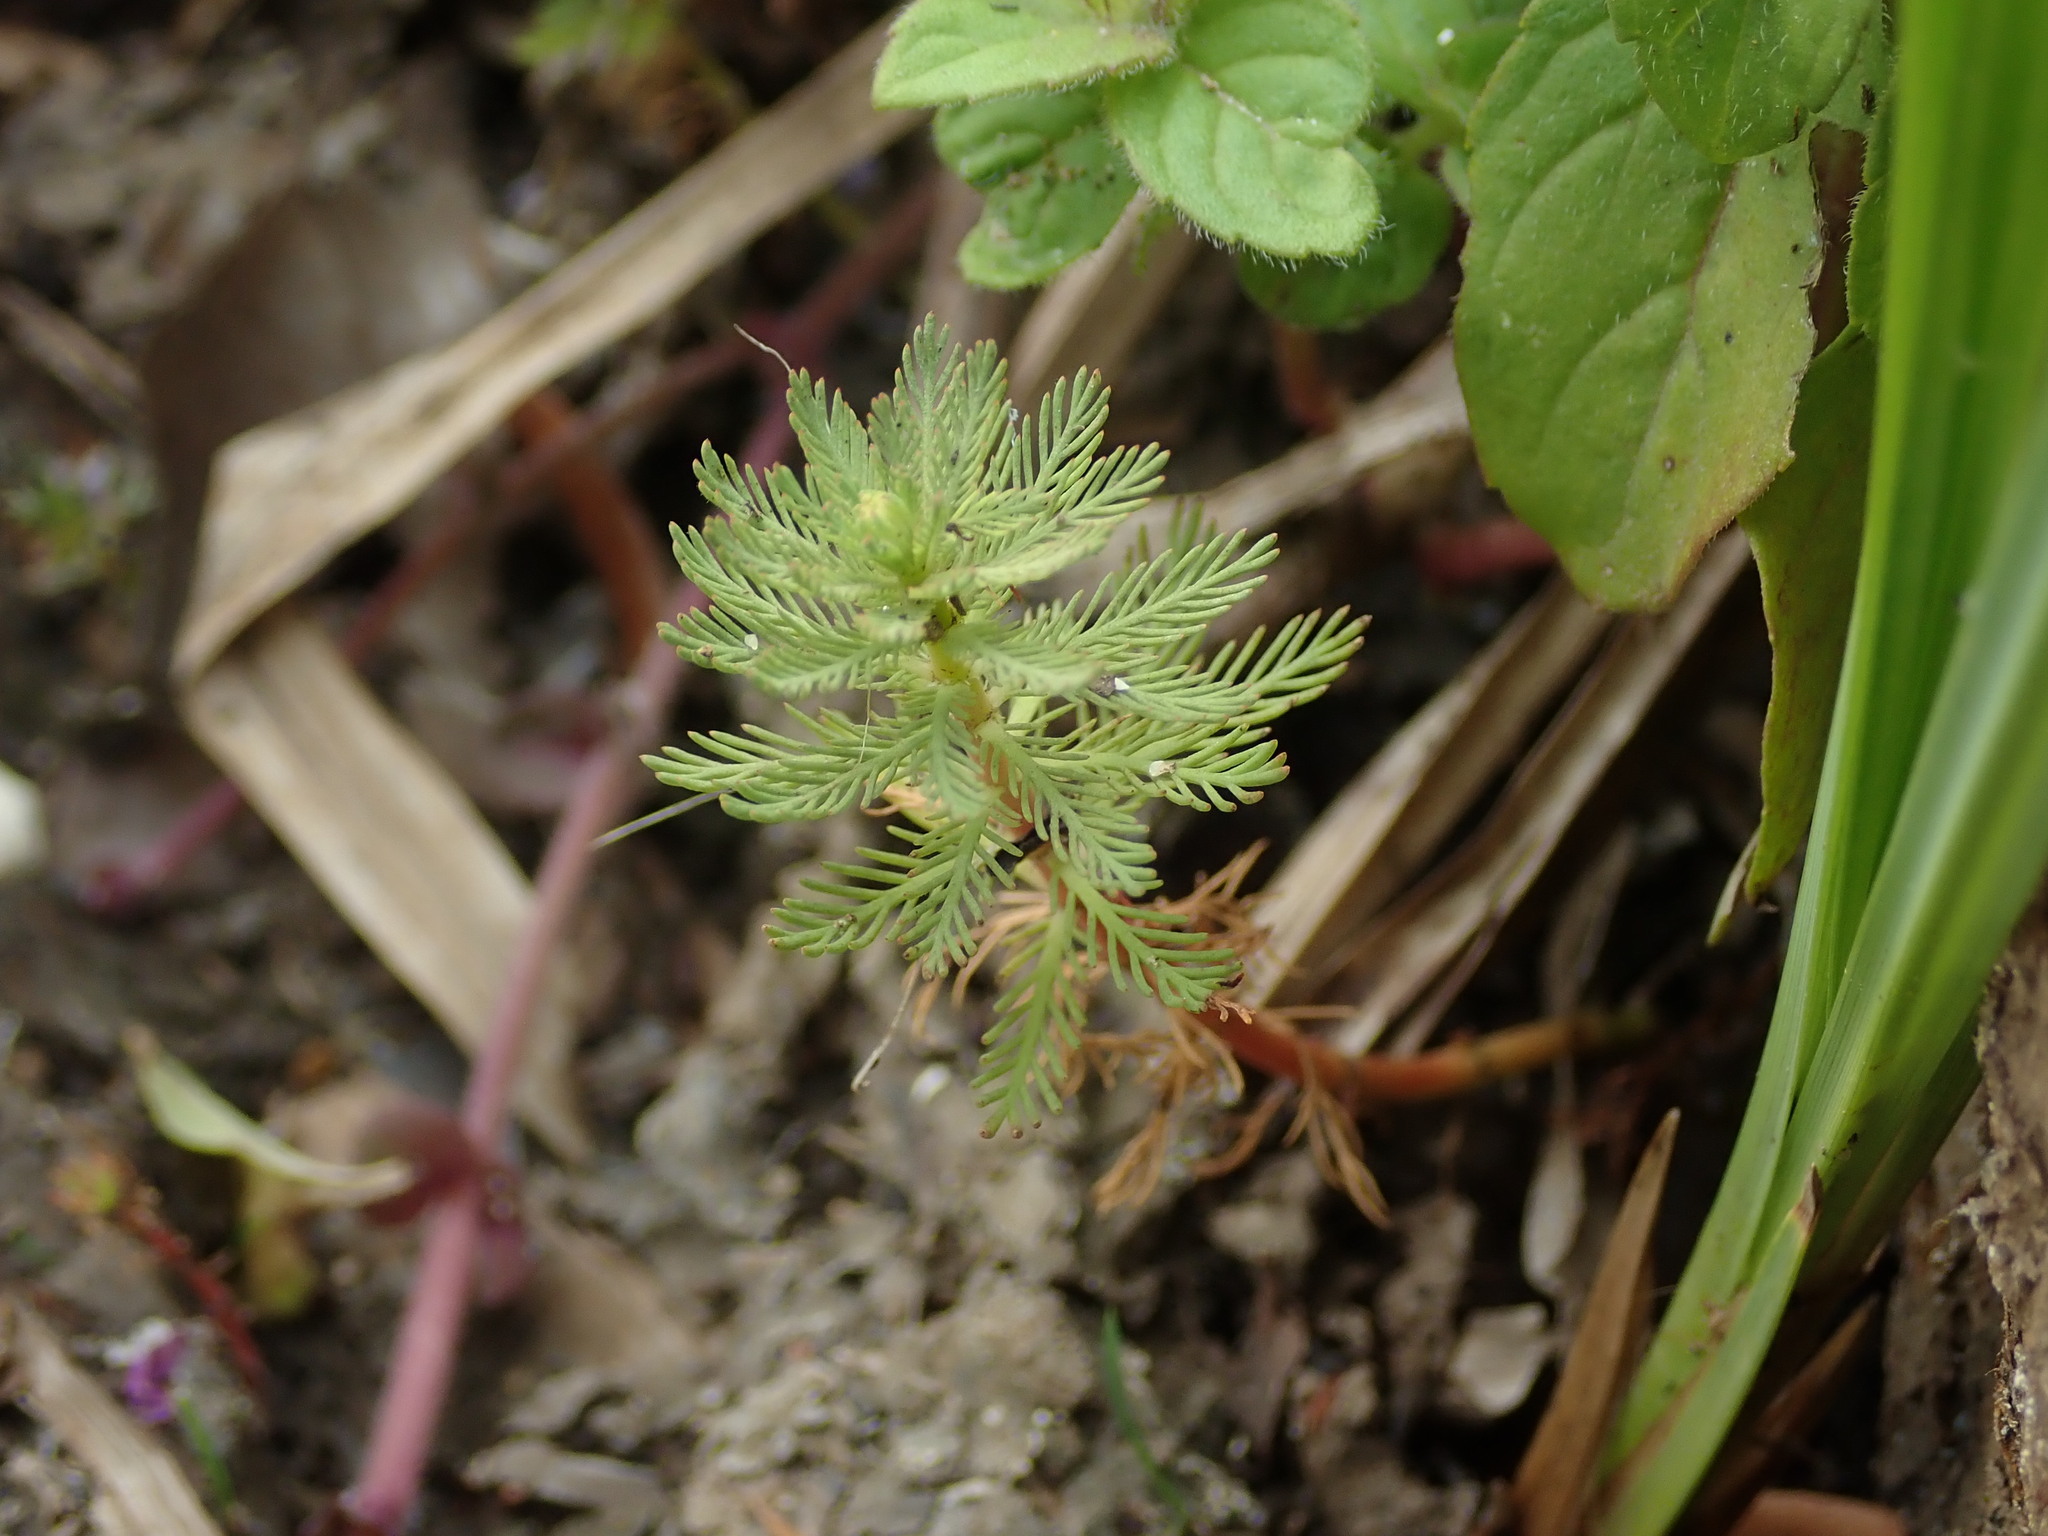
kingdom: Plantae
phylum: Tracheophyta
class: Magnoliopsida
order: Saxifragales
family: Haloragaceae
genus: Myriophyllum
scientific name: Myriophyllum aquaticum
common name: Parrot's feather
